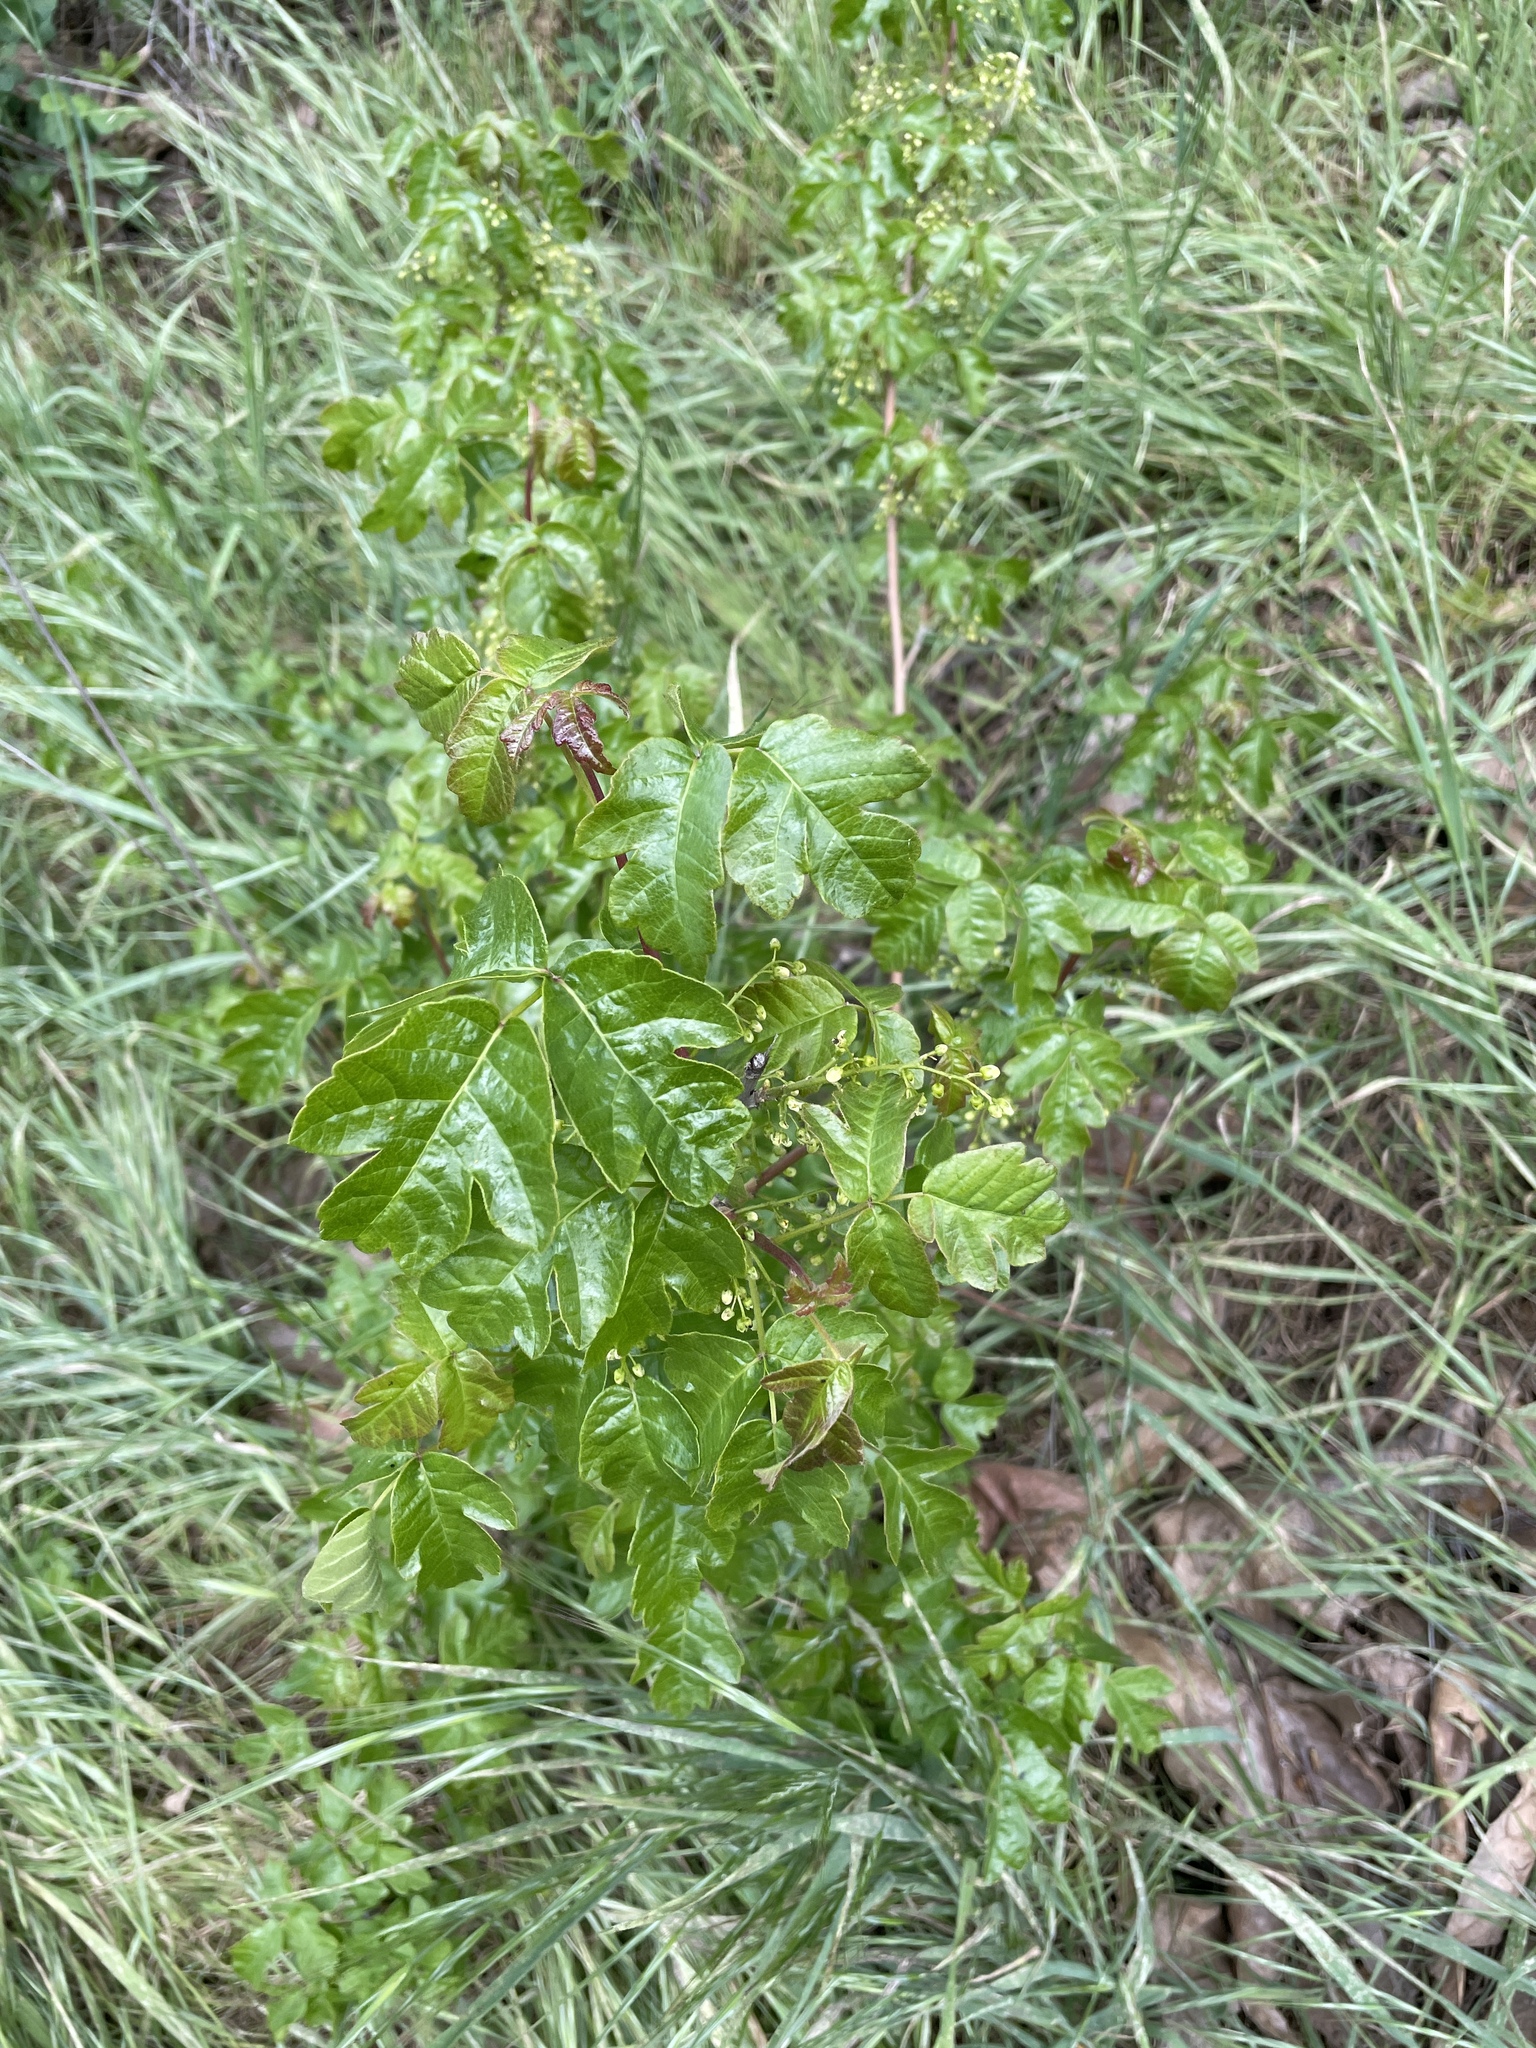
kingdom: Plantae
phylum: Tracheophyta
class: Magnoliopsida
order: Sapindales
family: Anacardiaceae
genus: Toxicodendron
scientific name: Toxicodendron diversilobum
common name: Pacific poison-oak
